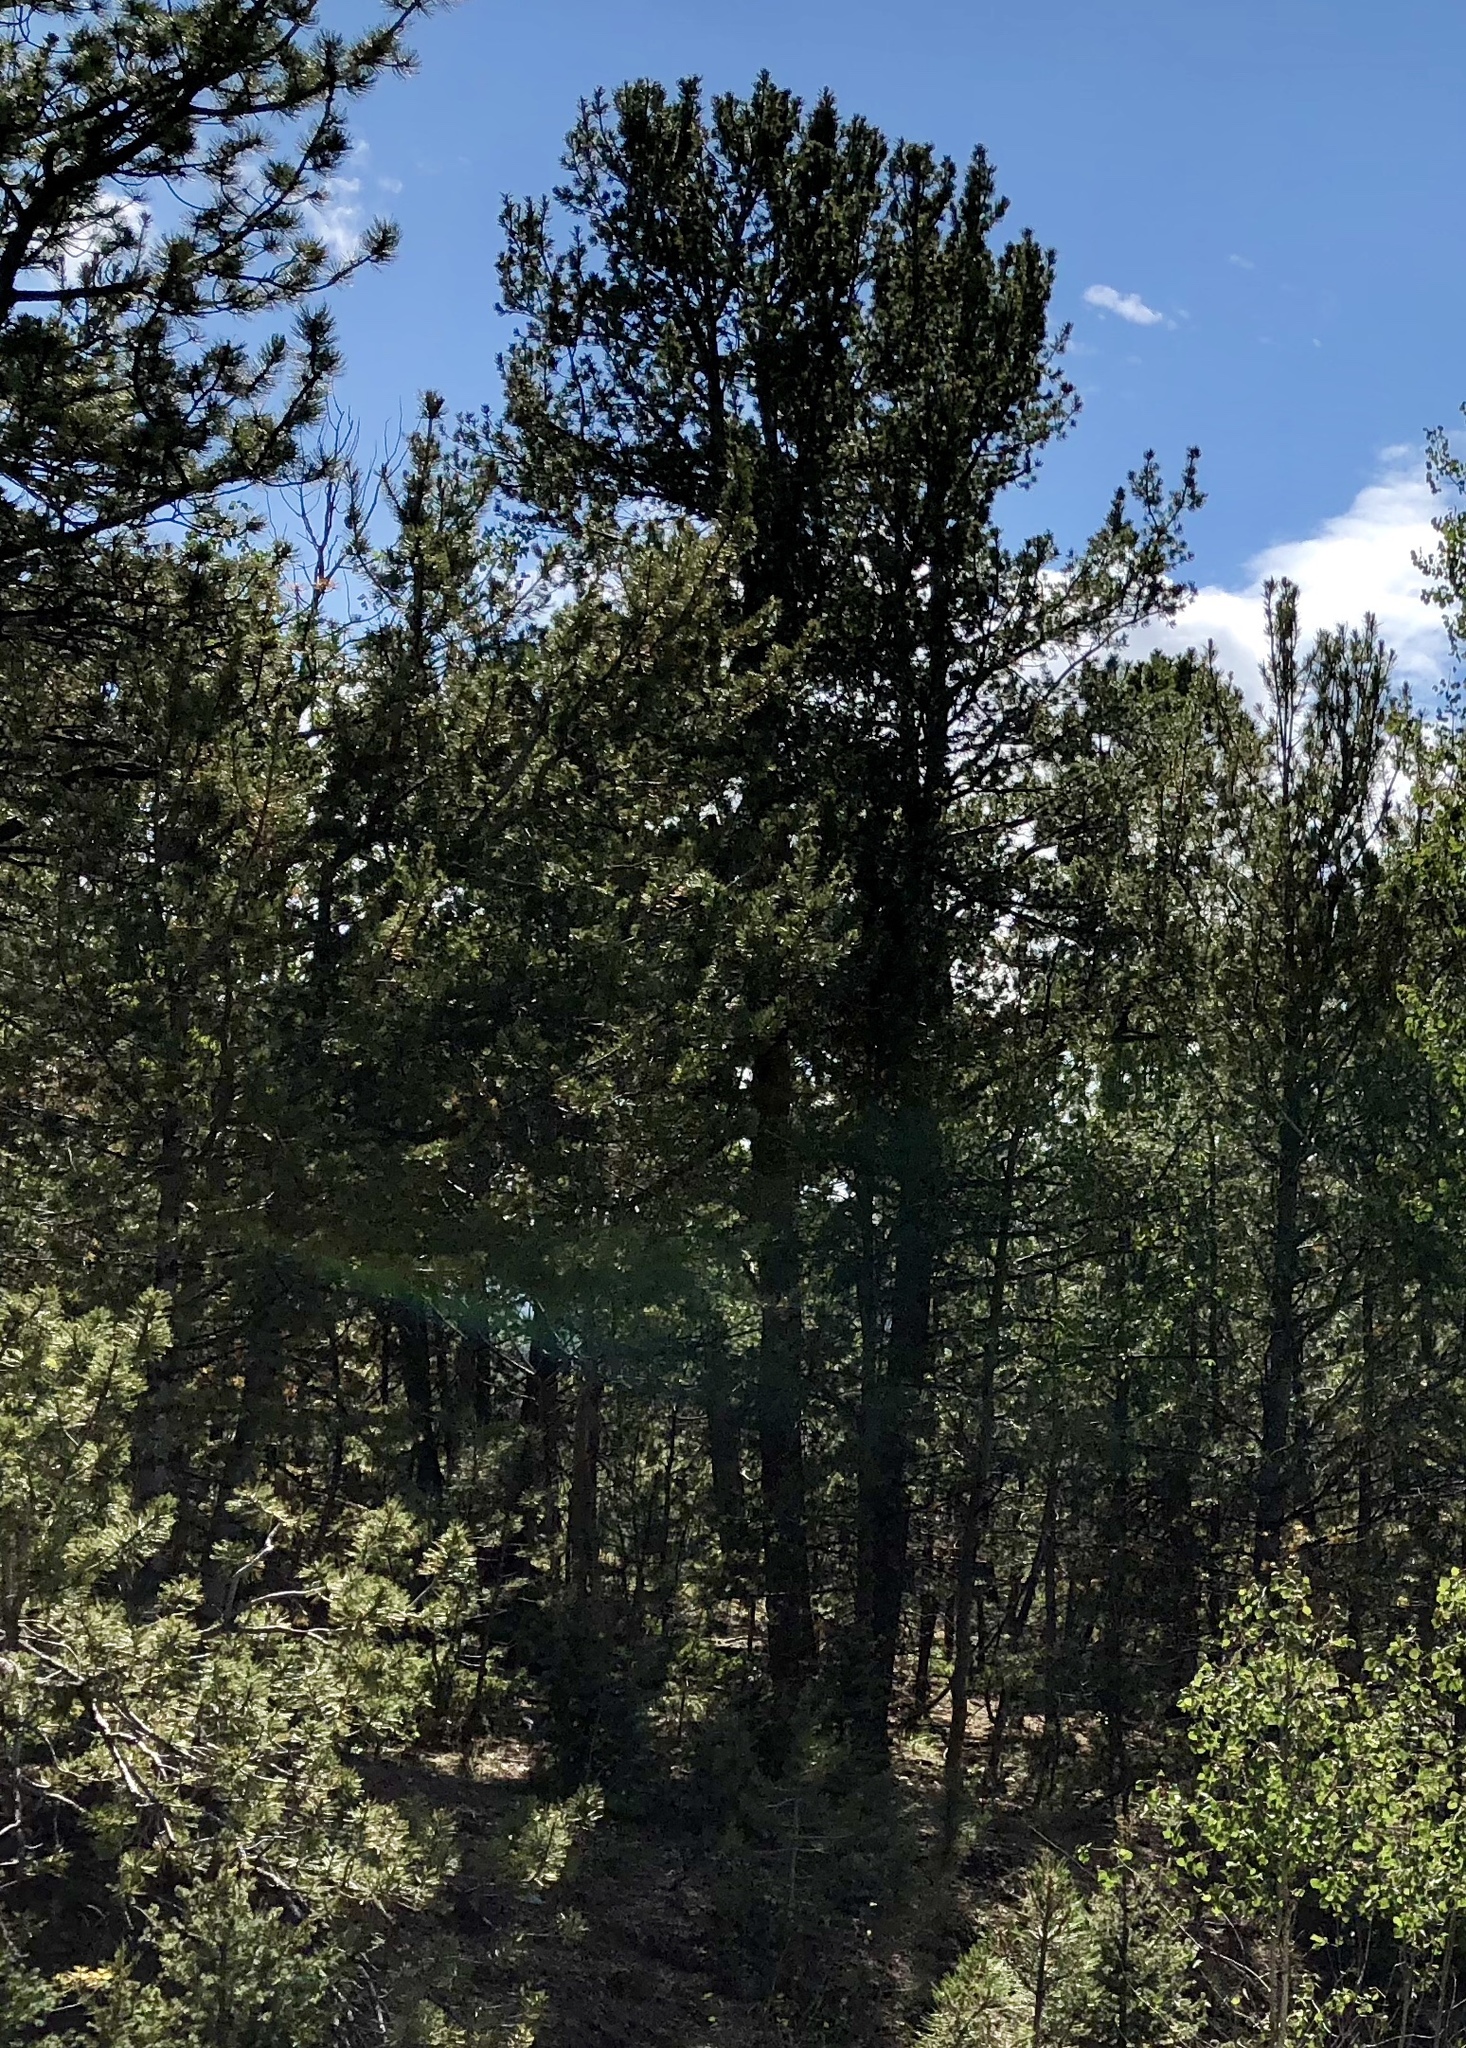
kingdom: Plantae
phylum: Tracheophyta
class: Pinopsida
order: Pinales
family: Pinaceae
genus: Pinus
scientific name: Pinus flexilis
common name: Limber pine
